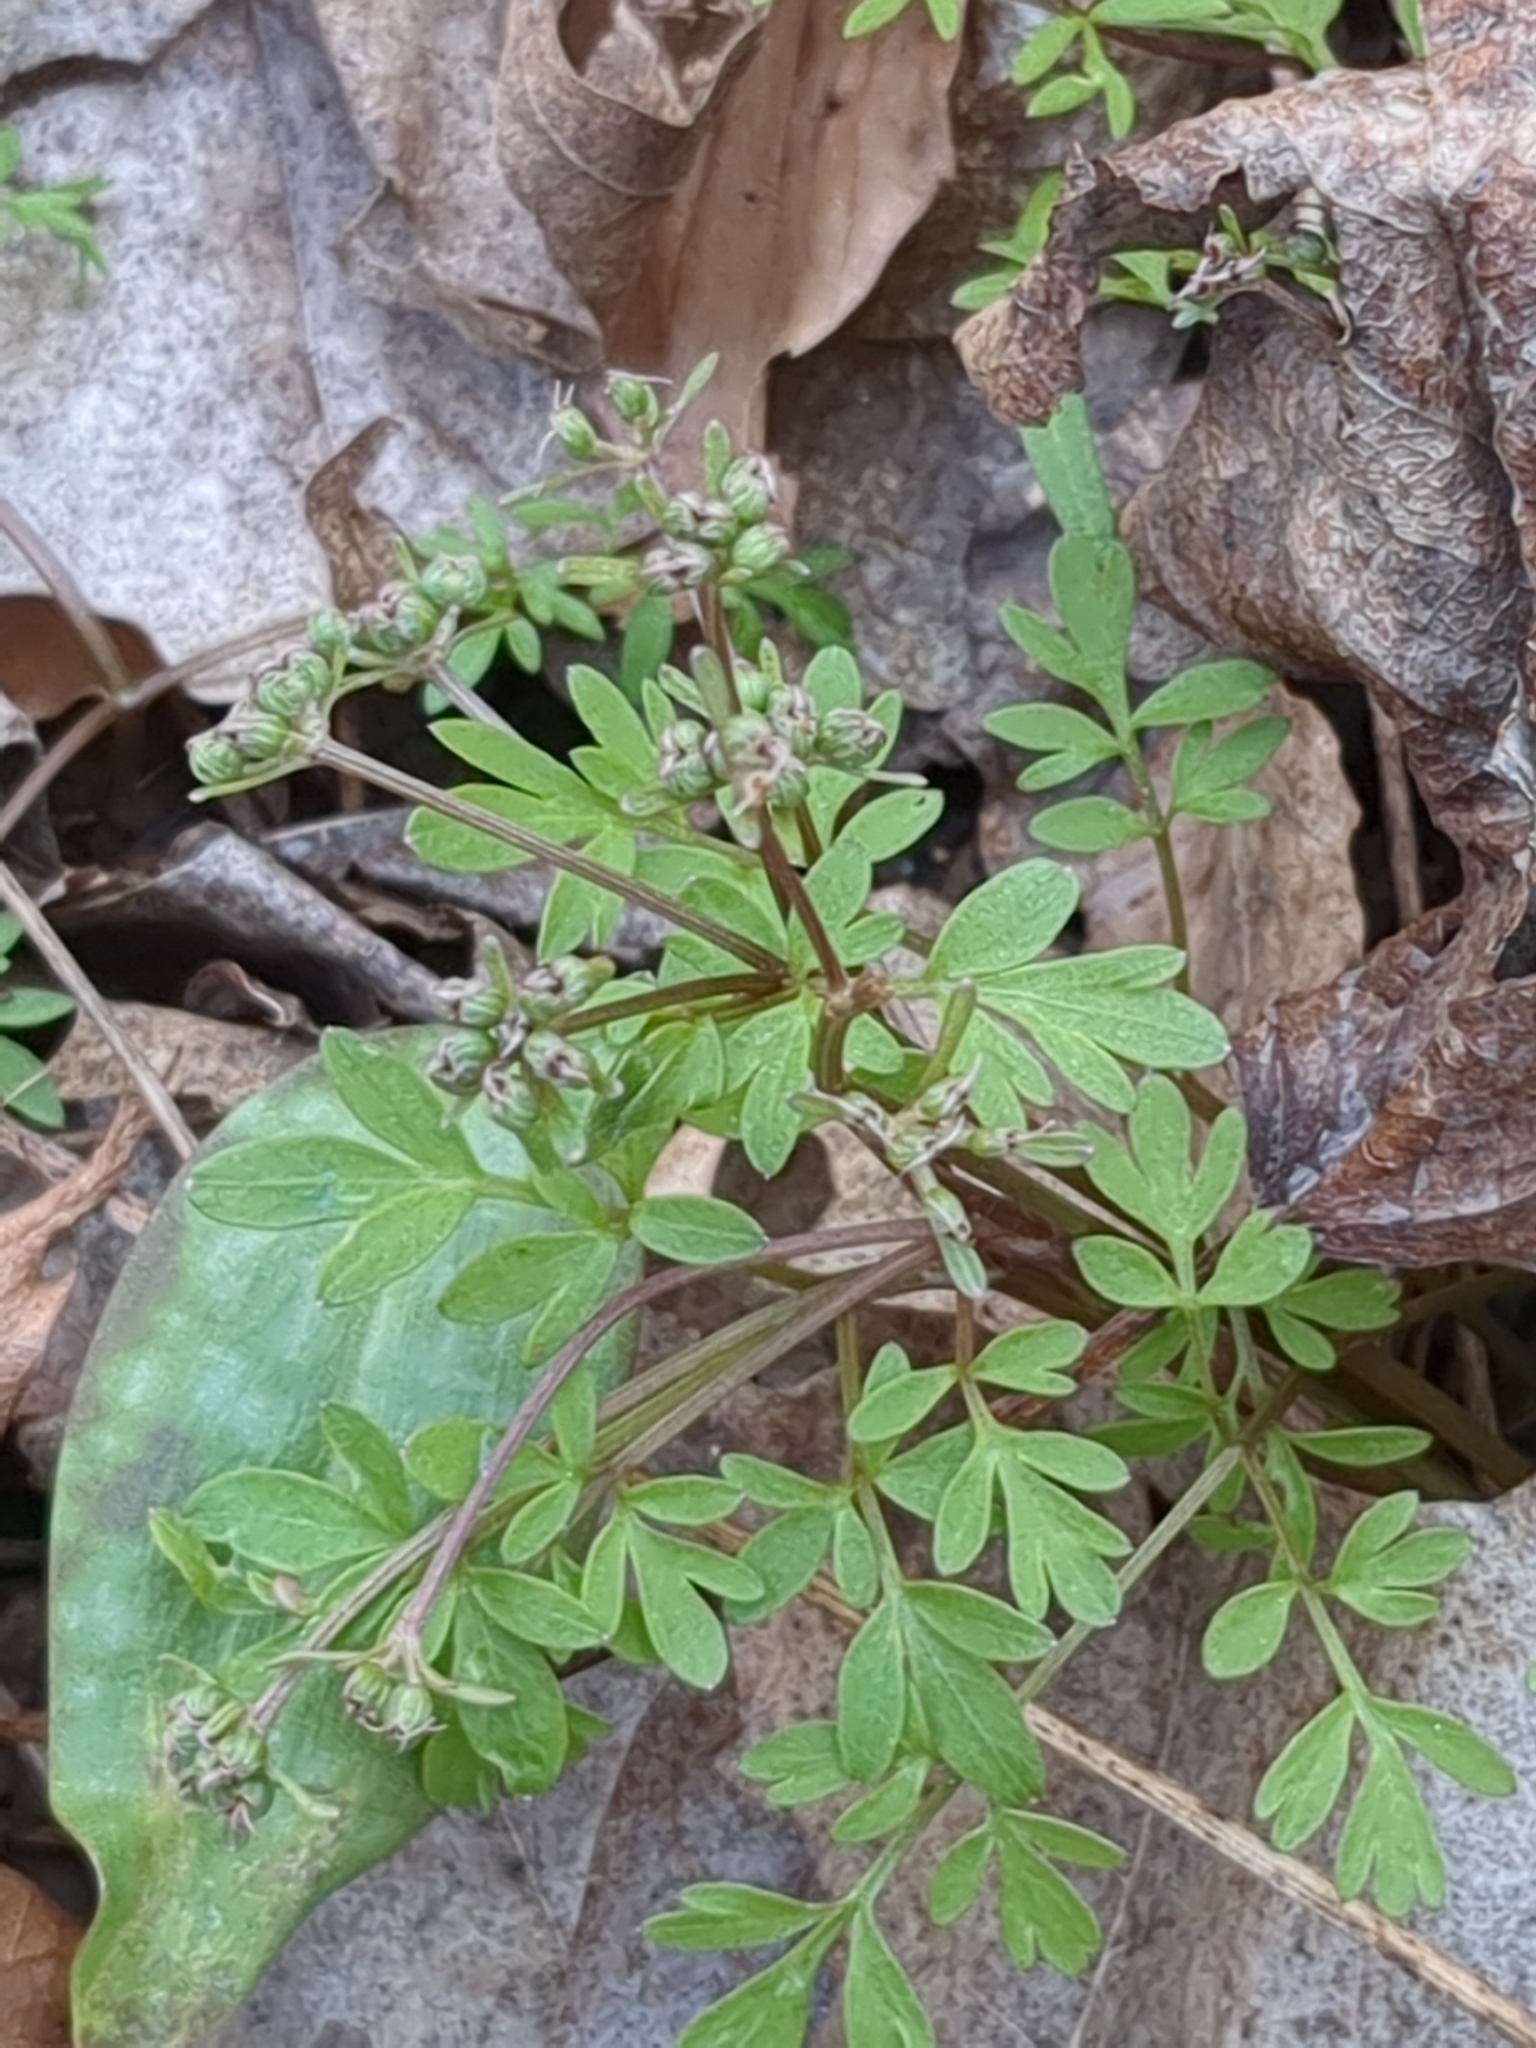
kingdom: Plantae
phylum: Tracheophyta
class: Magnoliopsida
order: Apiales
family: Apiaceae
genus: Erigenia
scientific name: Erigenia bulbosa
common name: Pepper-and-salt
